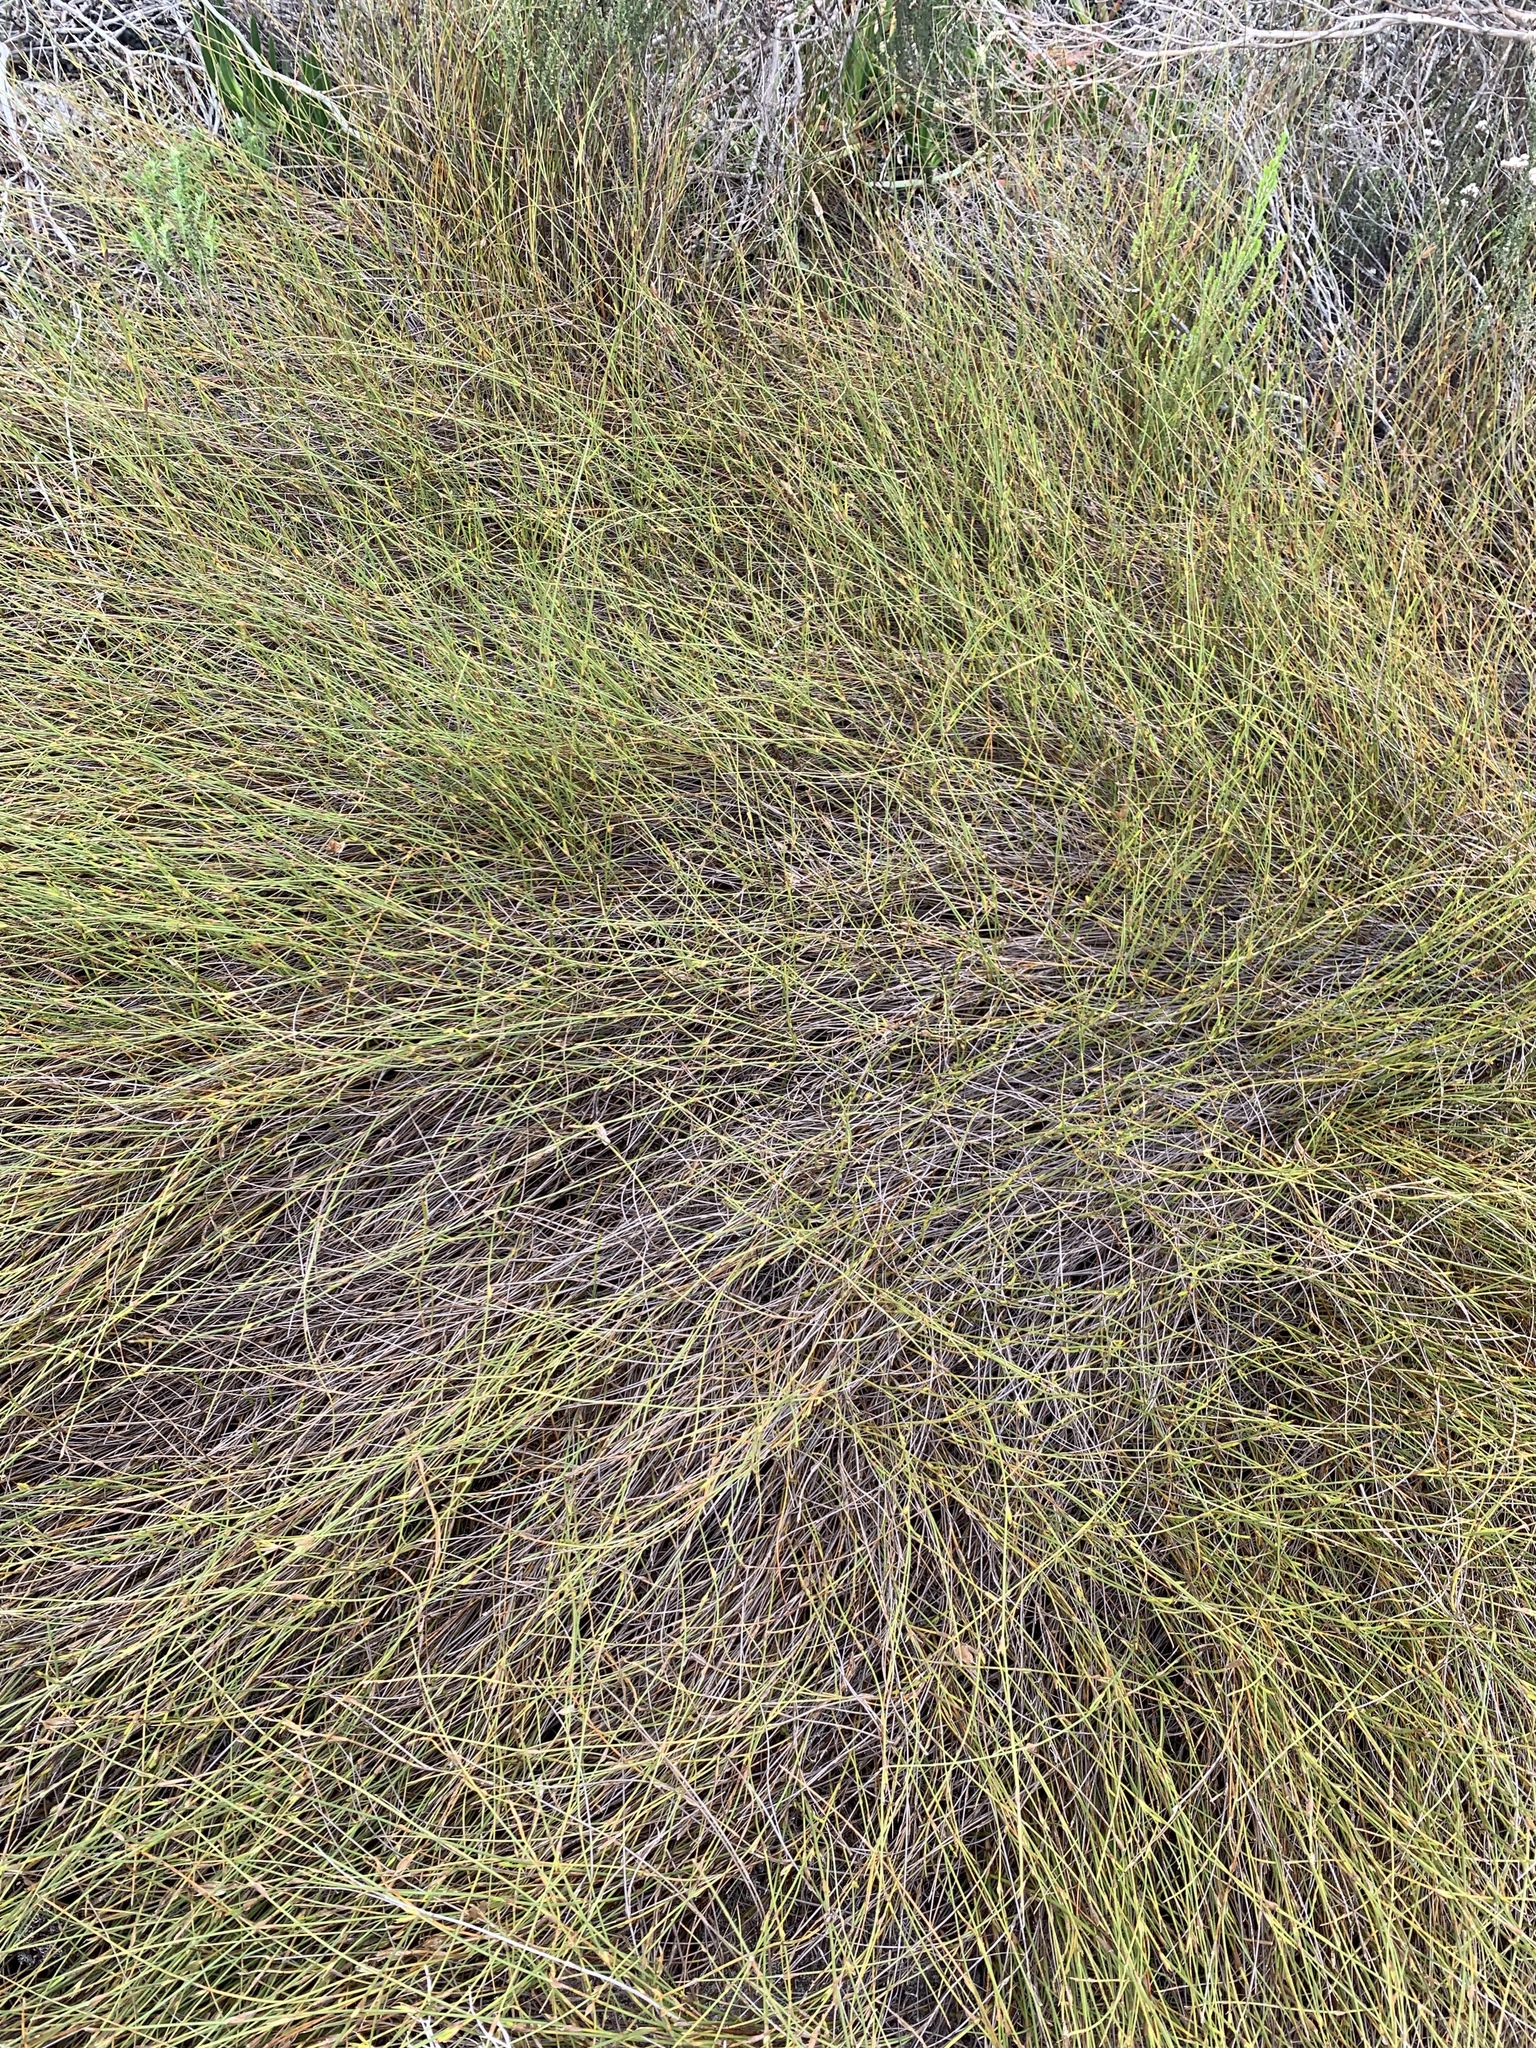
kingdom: Plantae
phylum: Tracheophyta
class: Liliopsida
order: Poales
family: Restionaceae
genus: Willdenowia
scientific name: Willdenowia sulcata
